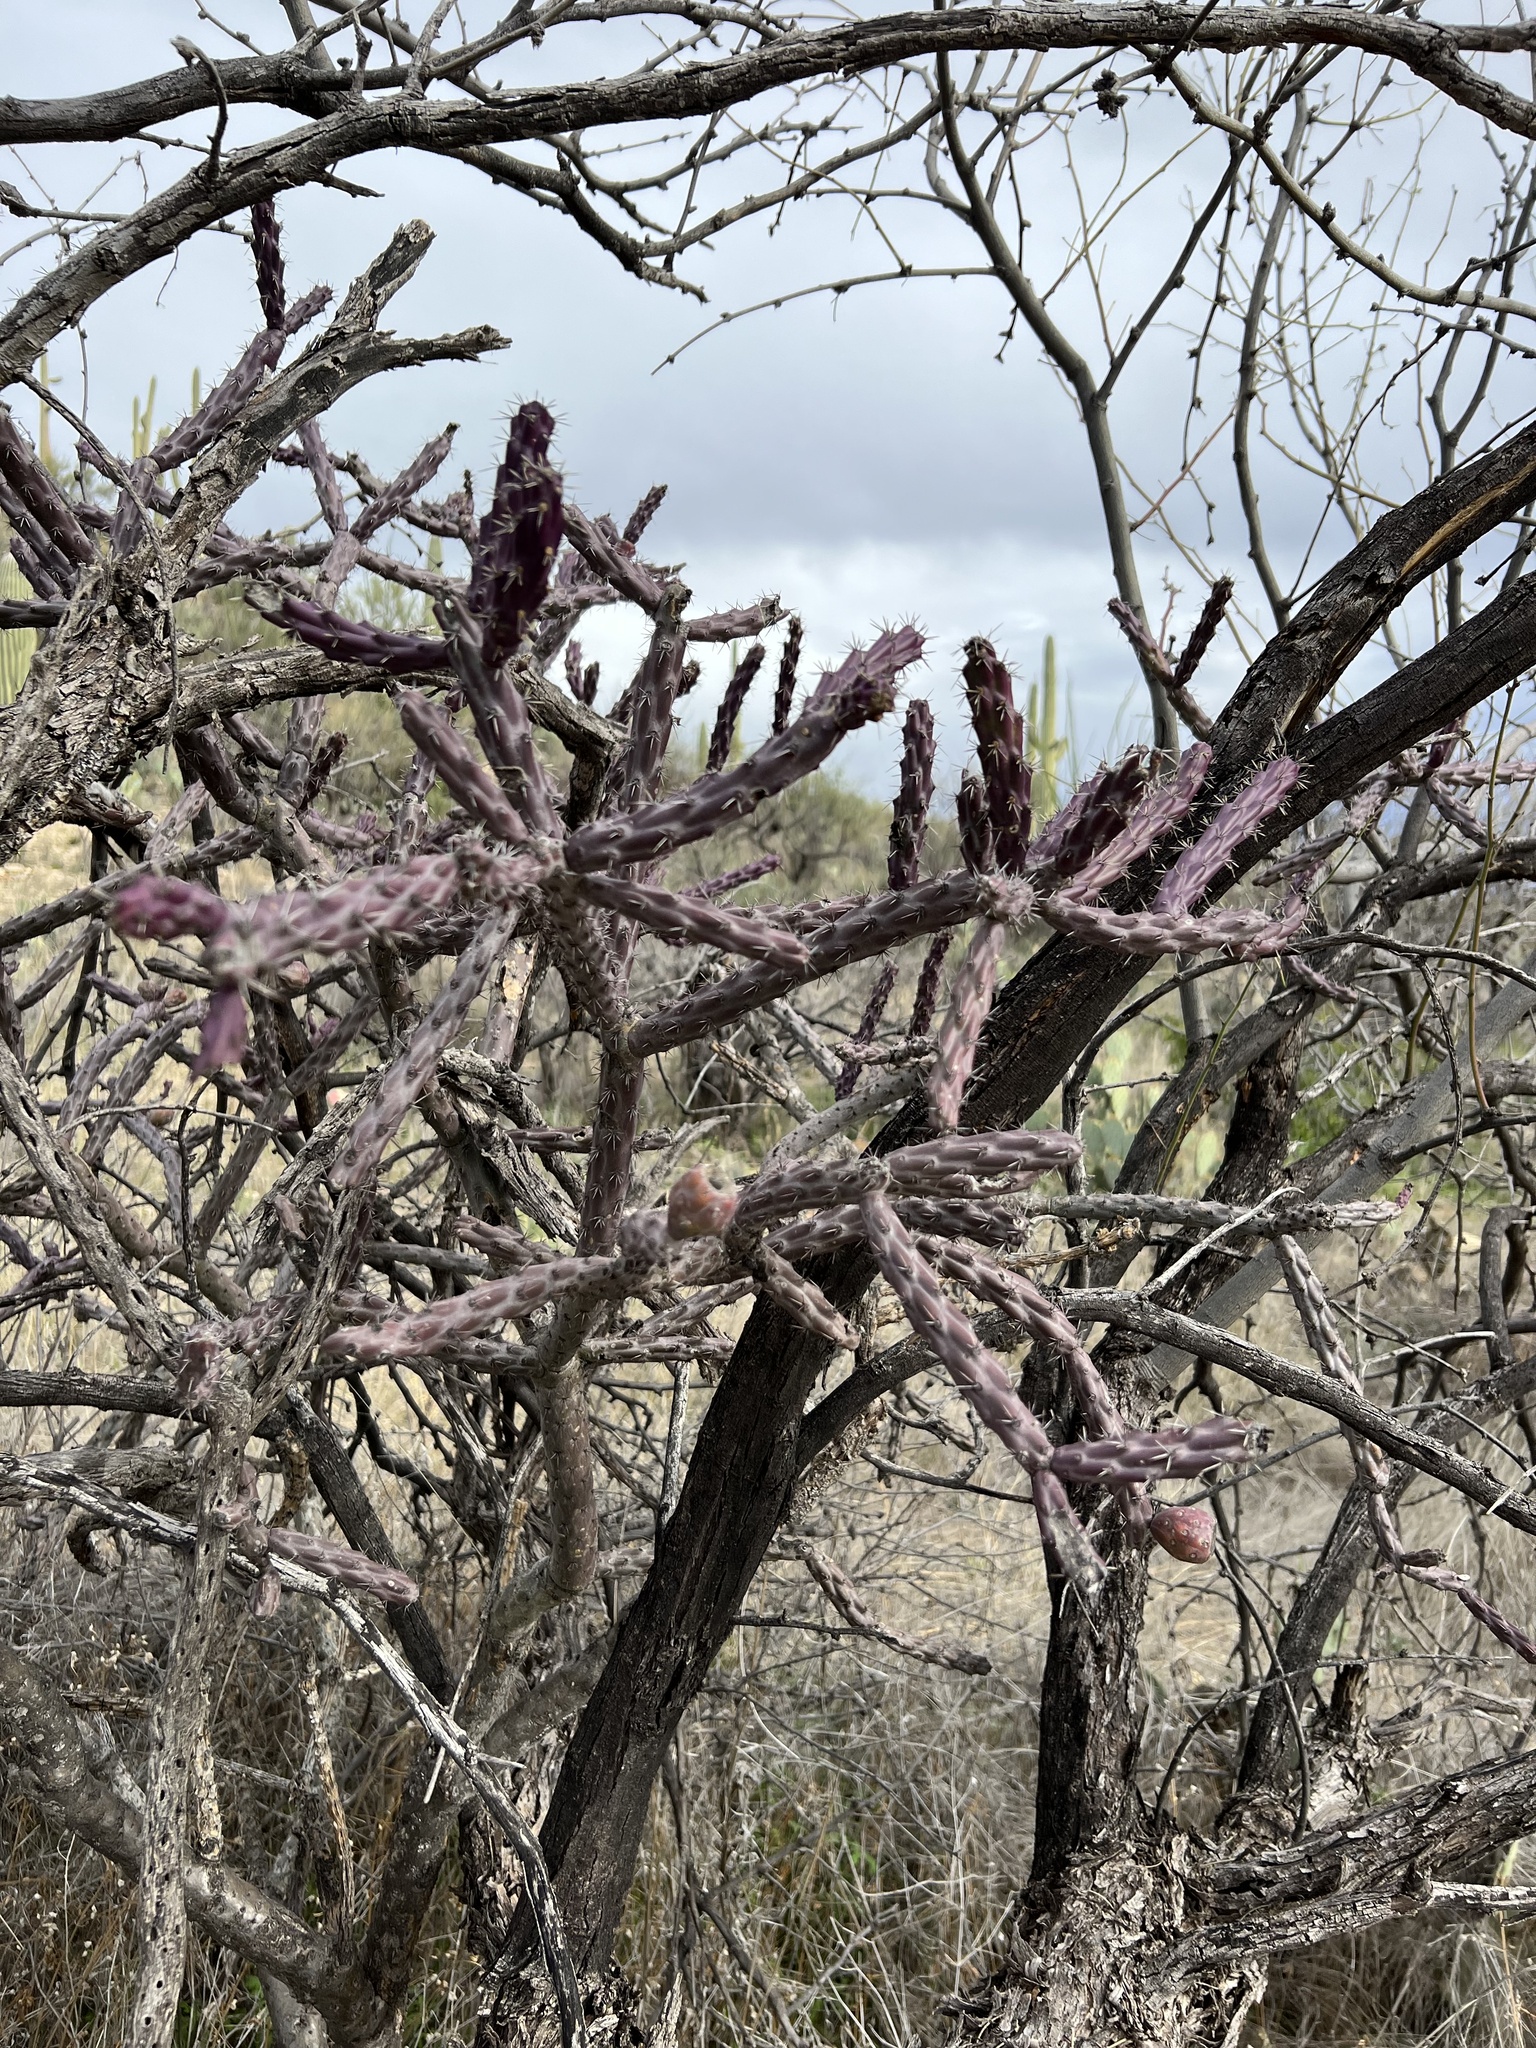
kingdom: Plantae
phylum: Tracheophyta
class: Magnoliopsida
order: Caryophyllales
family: Cactaceae
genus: Cylindropuntia
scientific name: Cylindropuntia thurberi
